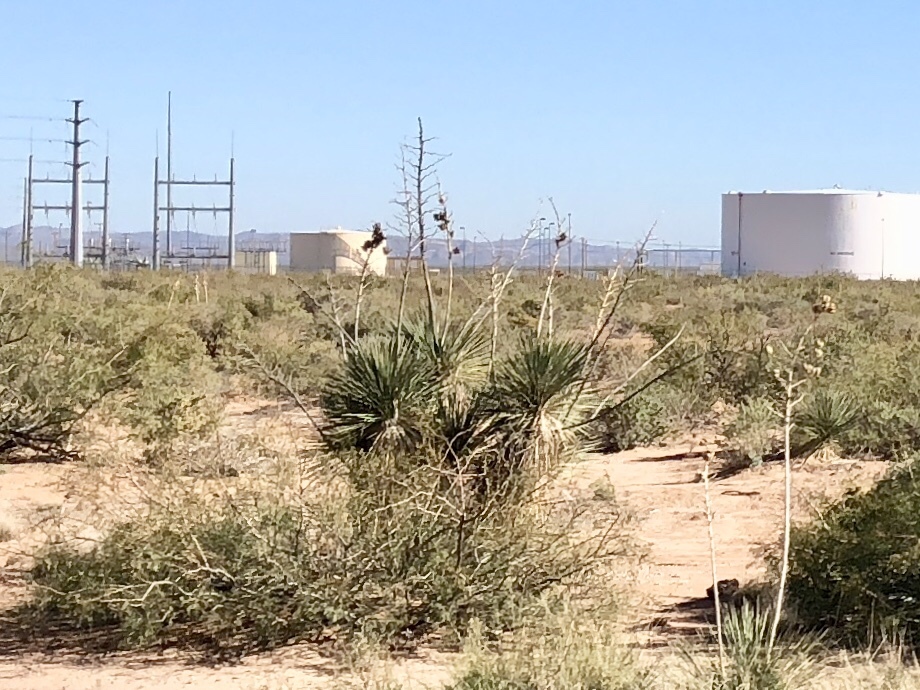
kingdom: Plantae
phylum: Tracheophyta
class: Liliopsida
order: Asparagales
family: Asparagaceae
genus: Yucca
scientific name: Yucca elata
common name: Palmella
